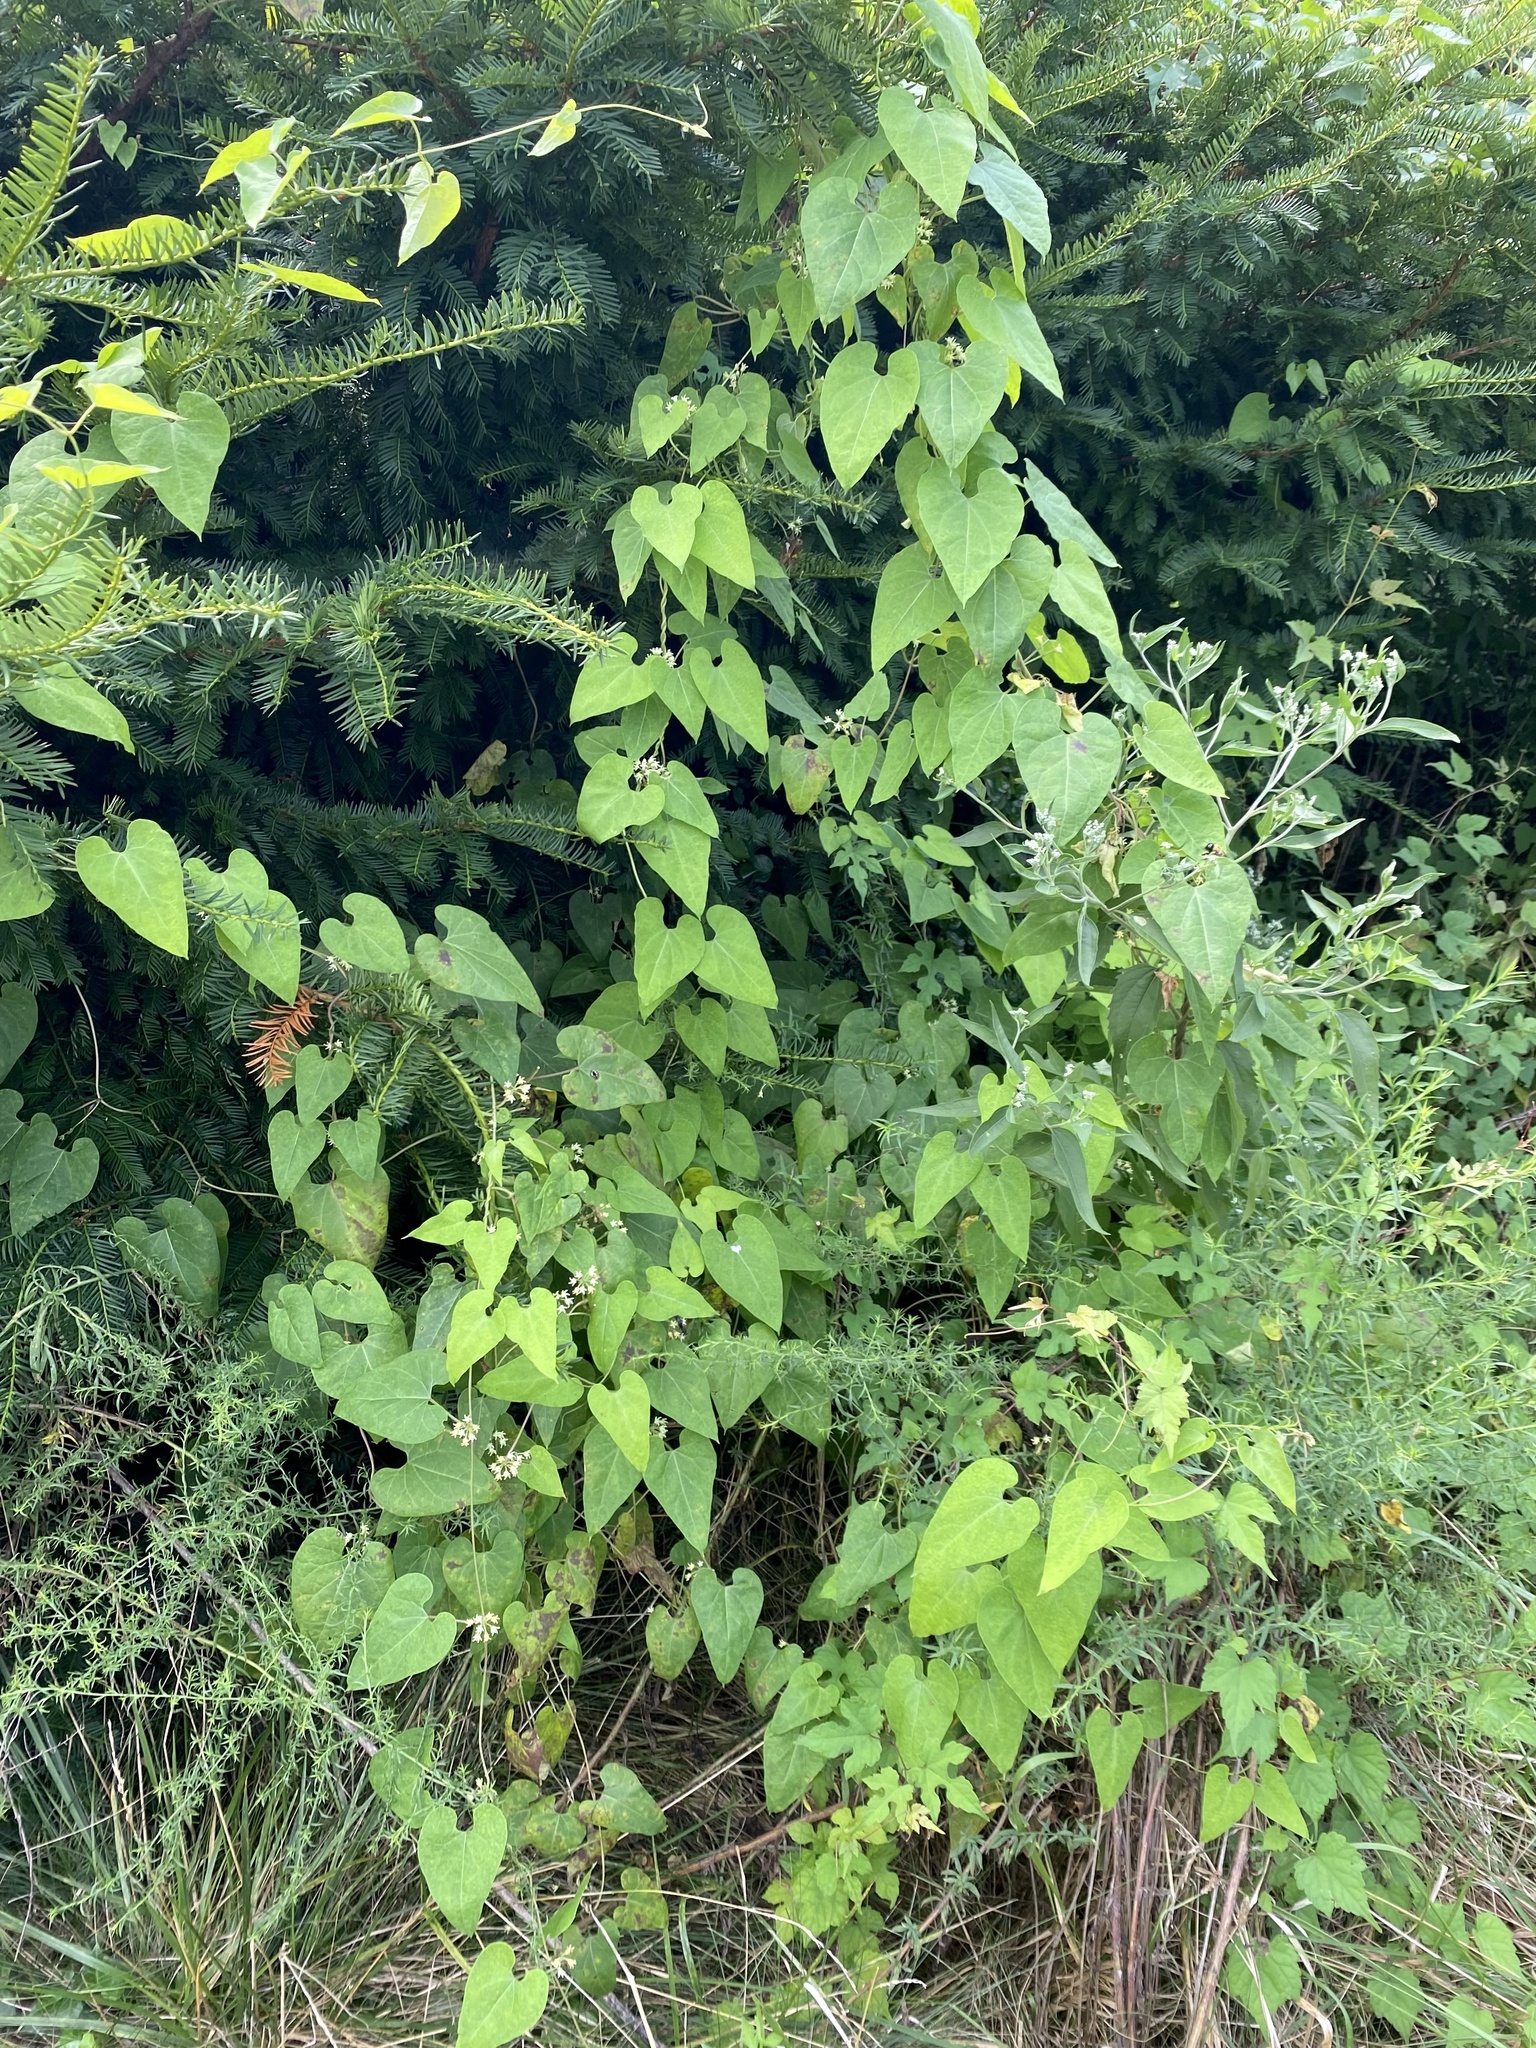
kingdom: Plantae
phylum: Tracheophyta
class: Magnoliopsida
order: Gentianales
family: Apocynaceae
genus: Cynanchum
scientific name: Cynanchum laeve
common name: Sandvine
